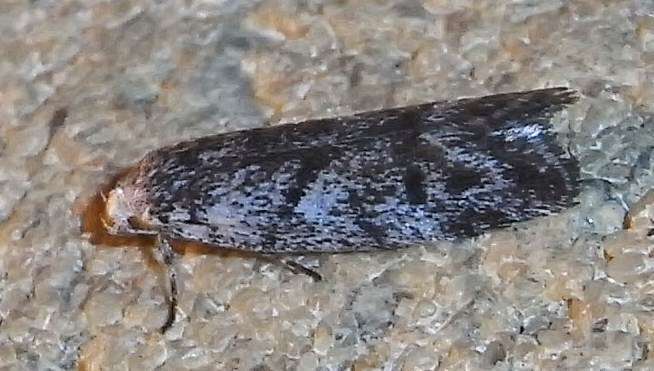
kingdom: Animalia
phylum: Arthropoda
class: Insecta
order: Lepidoptera
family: Xyloryctidae
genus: Lichenaula
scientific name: Lichenaula onychotypa
